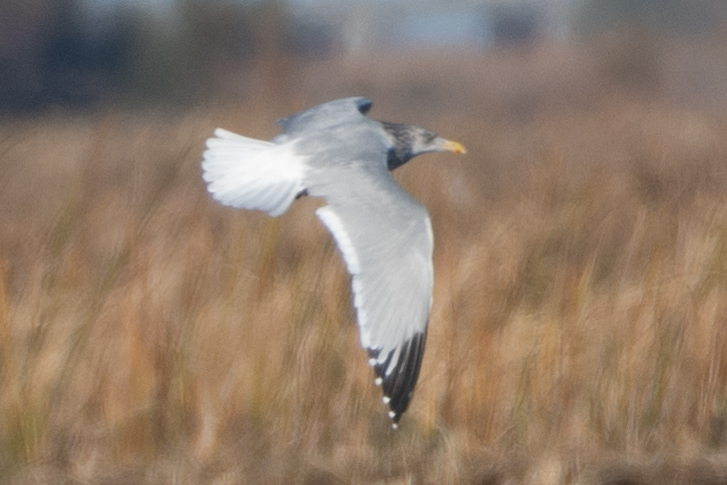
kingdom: Animalia
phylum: Chordata
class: Aves
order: Charadriiformes
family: Laridae
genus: Larus
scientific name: Larus argentatus
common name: Herring gull
